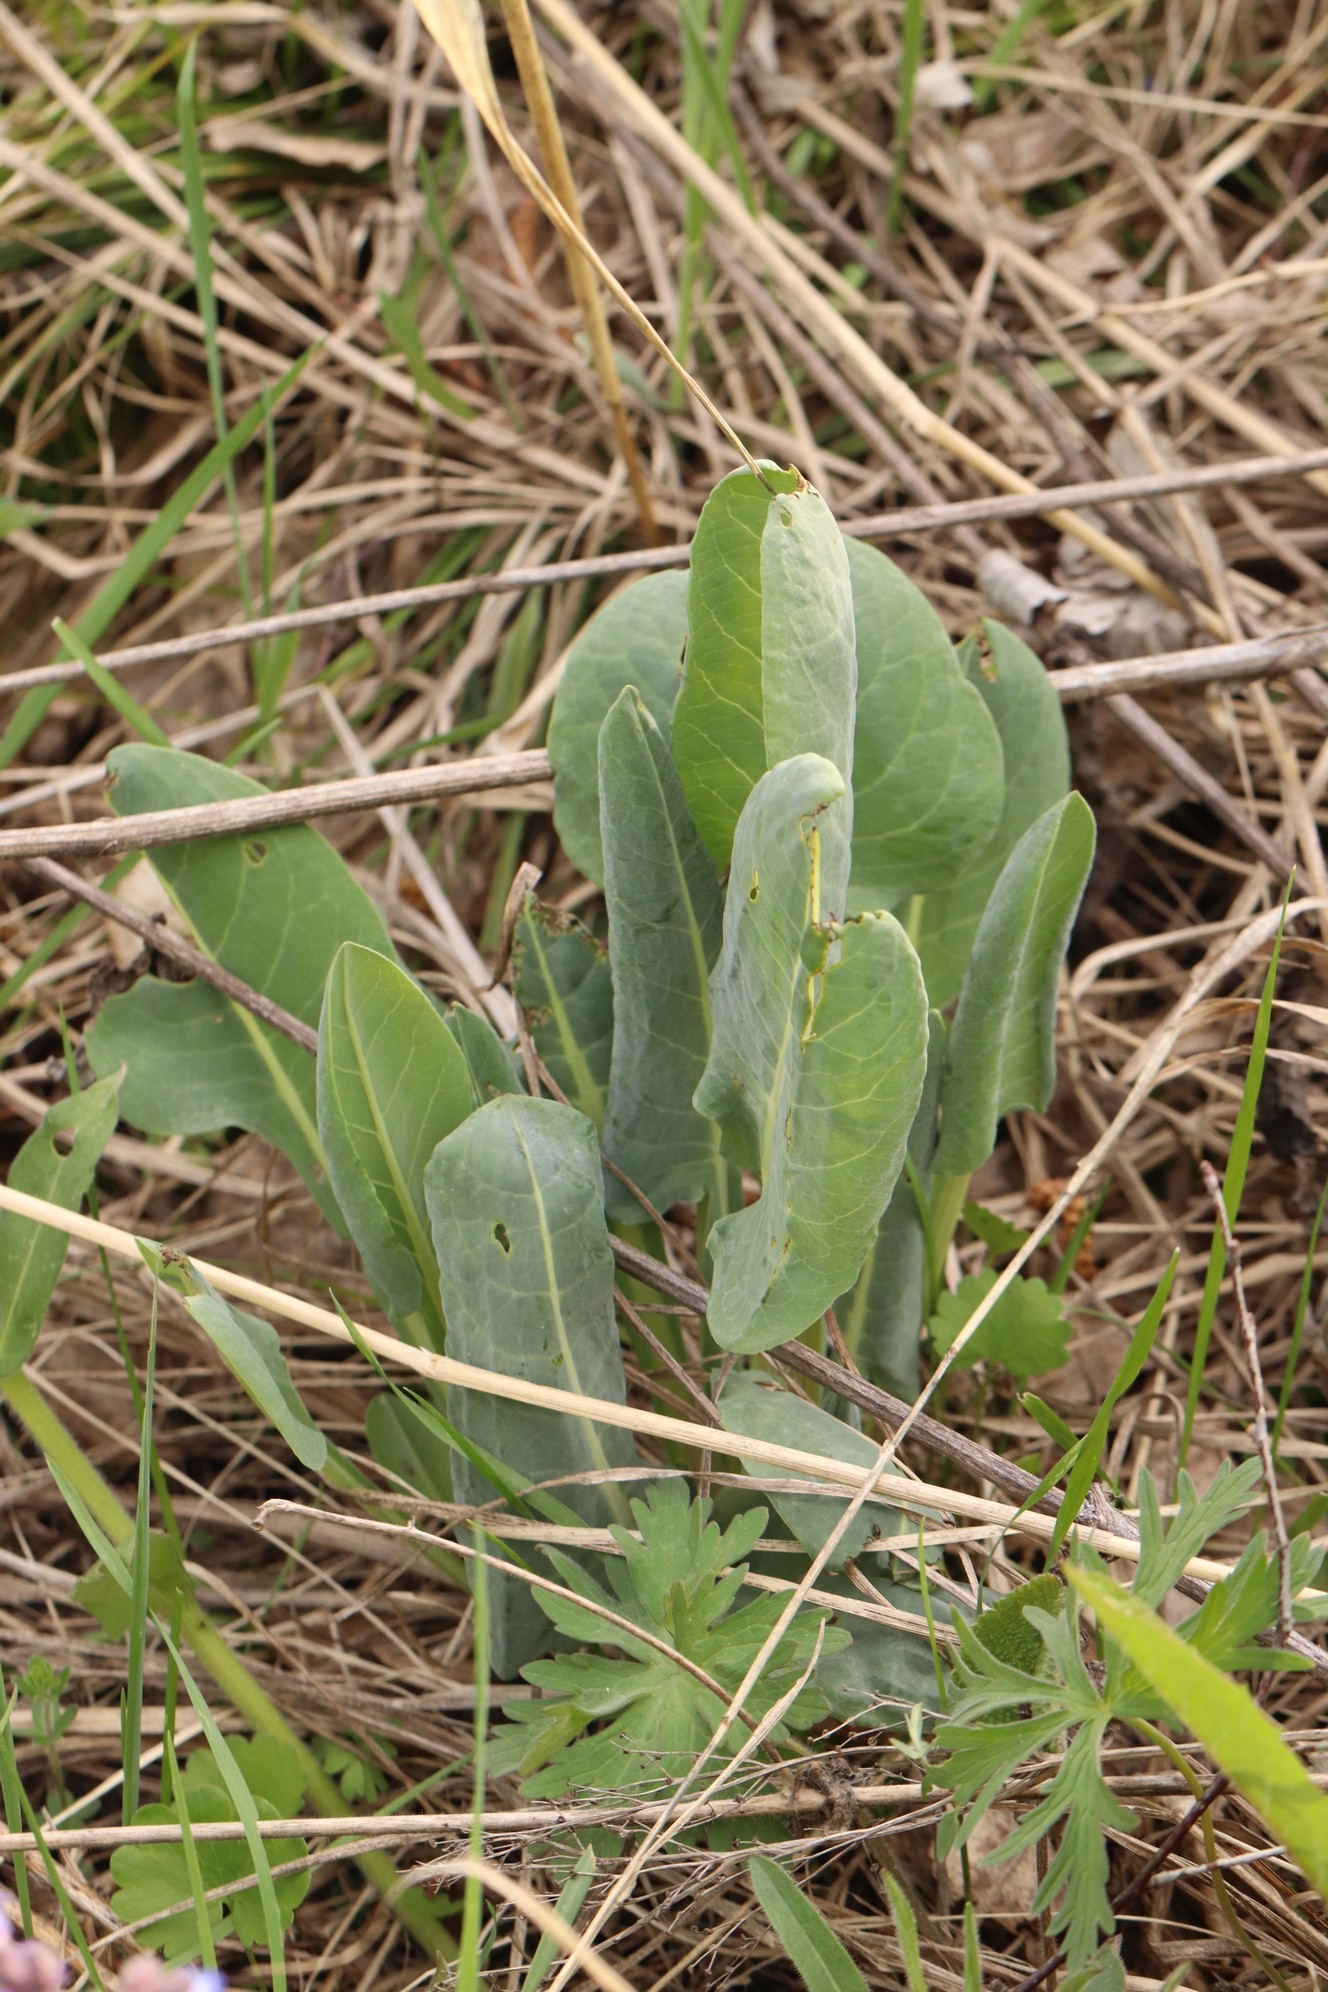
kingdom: Plantae
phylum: Tracheophyta
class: Magnoliopsida
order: Asterales
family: Asteraceae
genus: Ligularia
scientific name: Ligularia glauca
